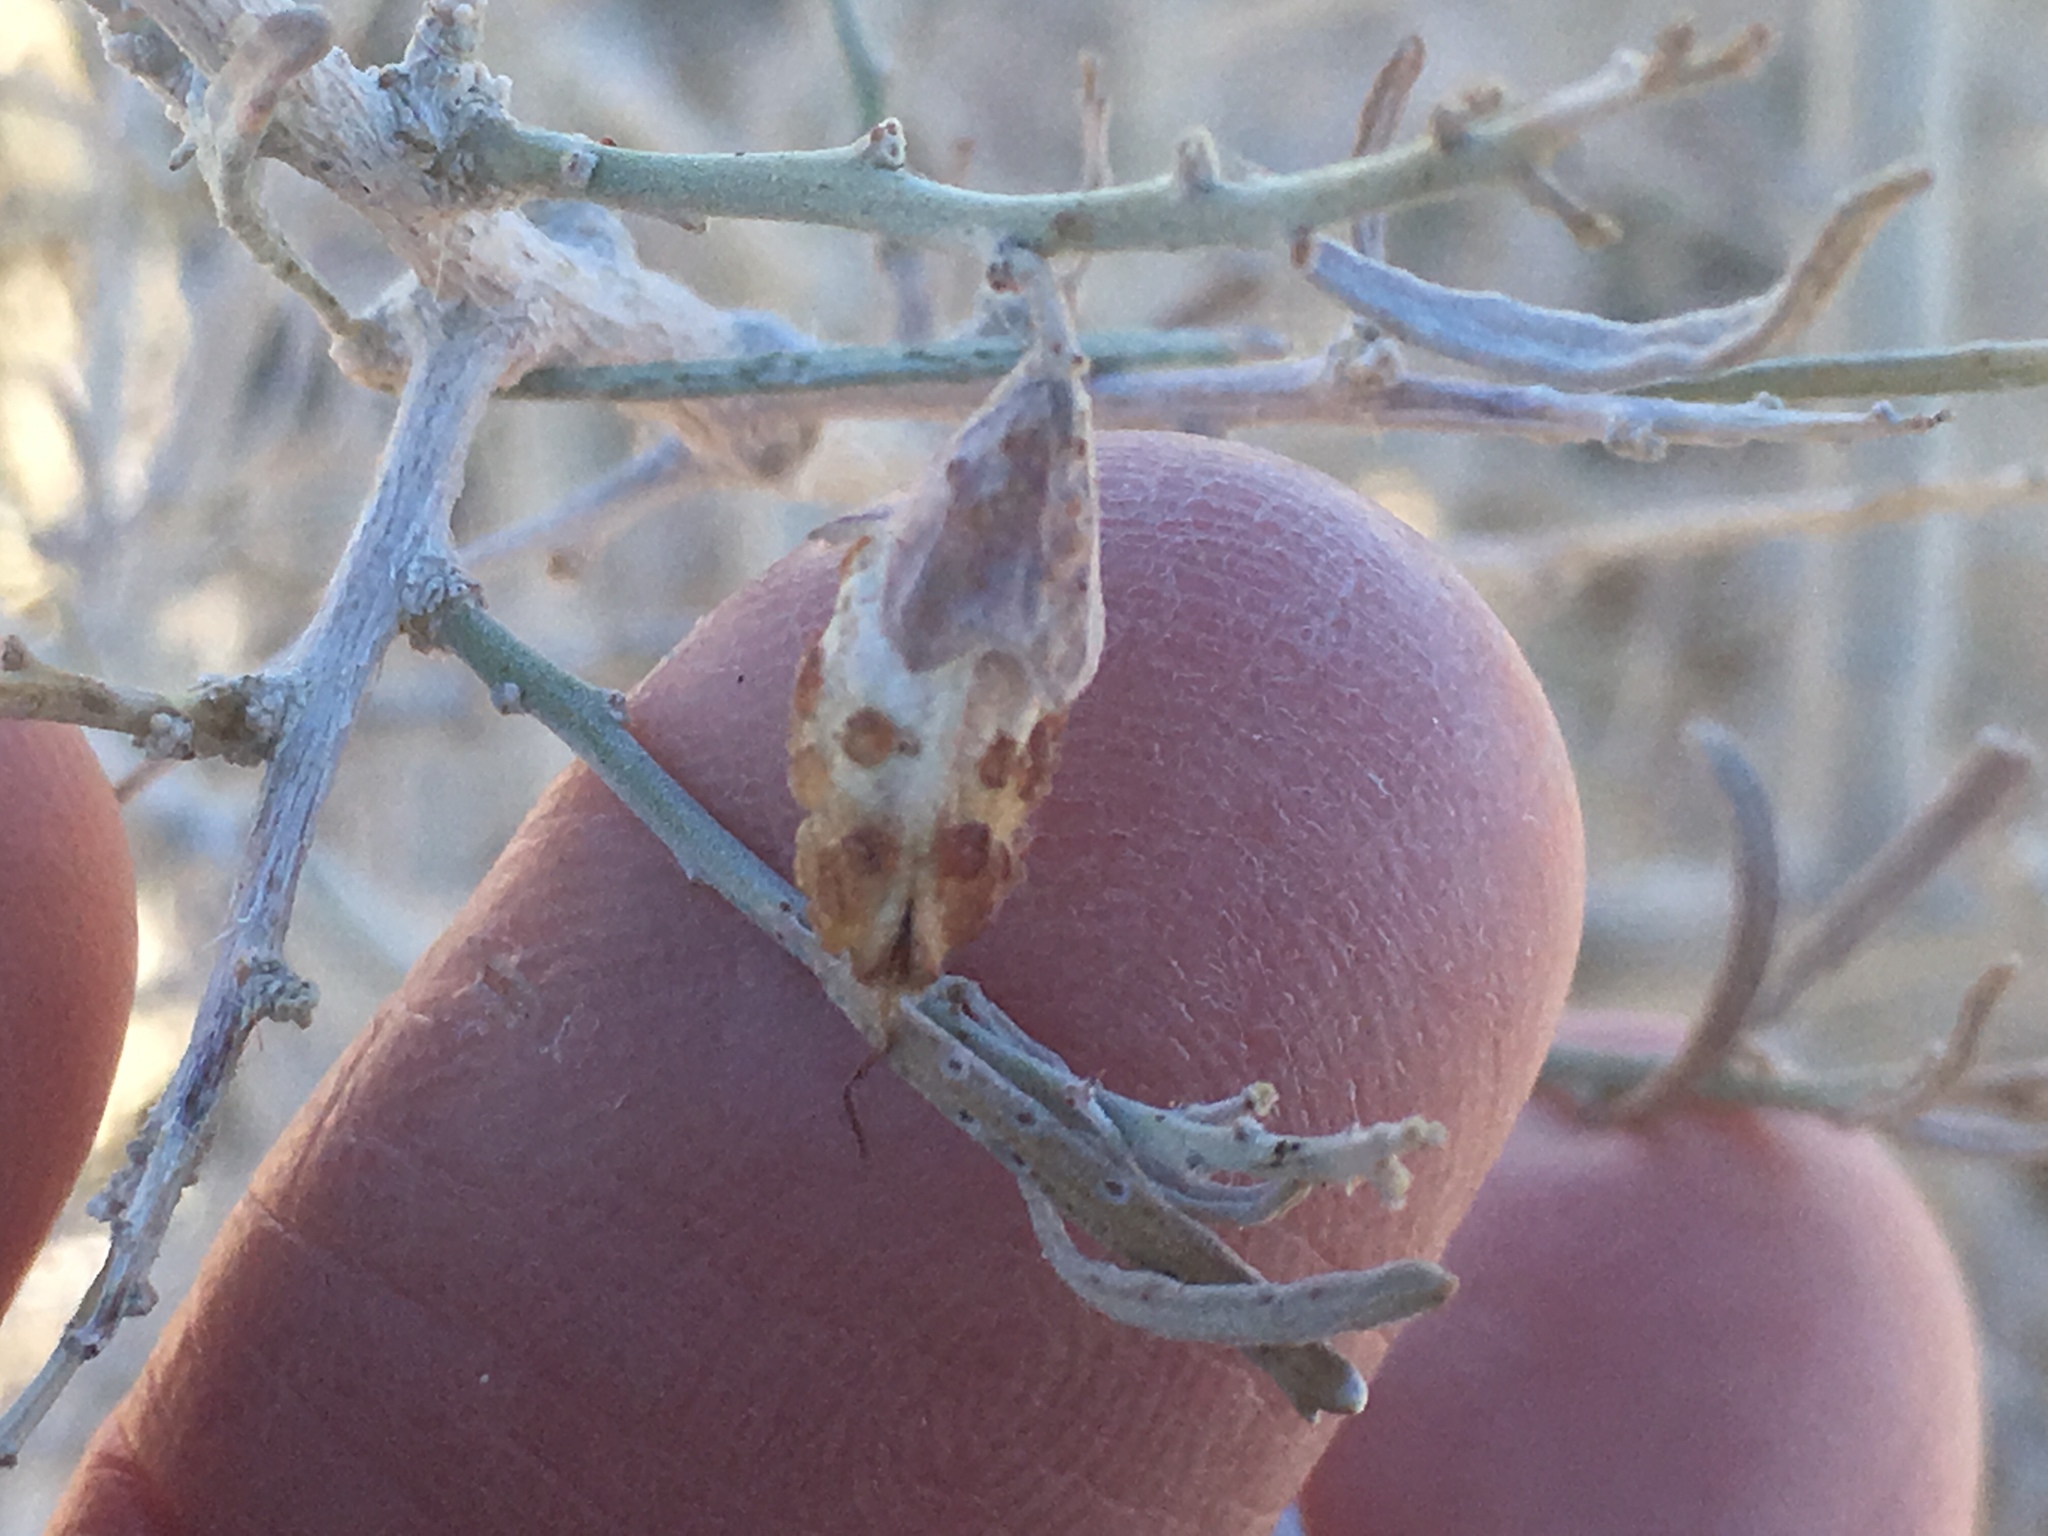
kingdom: Plantae
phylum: Tracheophyta
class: Magnoliopsida
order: Fabales
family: Fabaceae
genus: Psorothamnus
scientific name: Psorothamnus schottii
